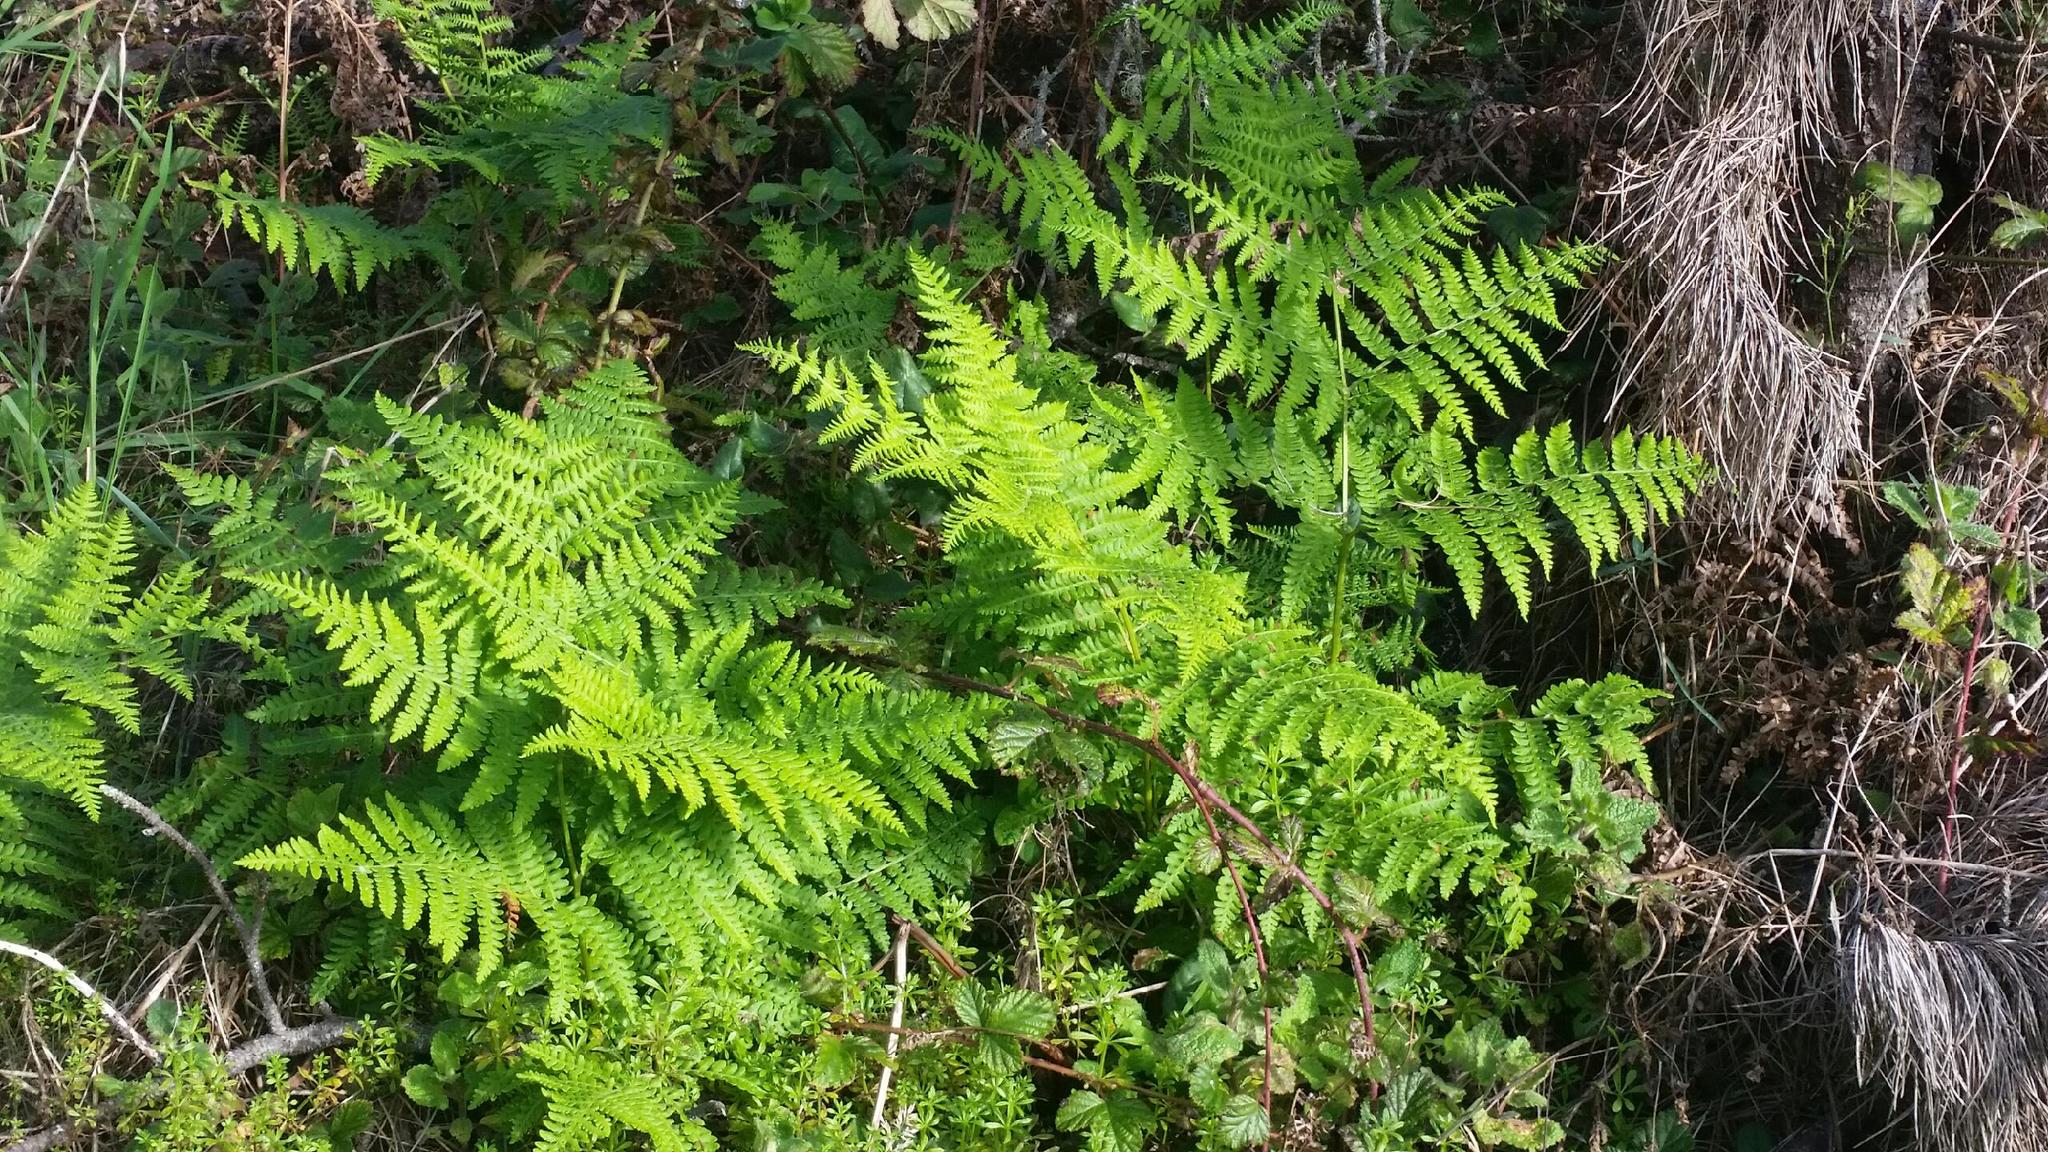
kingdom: Plantae
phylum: Tracheophyta
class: Polypodiopsida
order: Polypodiales
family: Dennstaedtiaceae
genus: Pteridium
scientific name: Pteridium aquilinum
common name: Bracken
